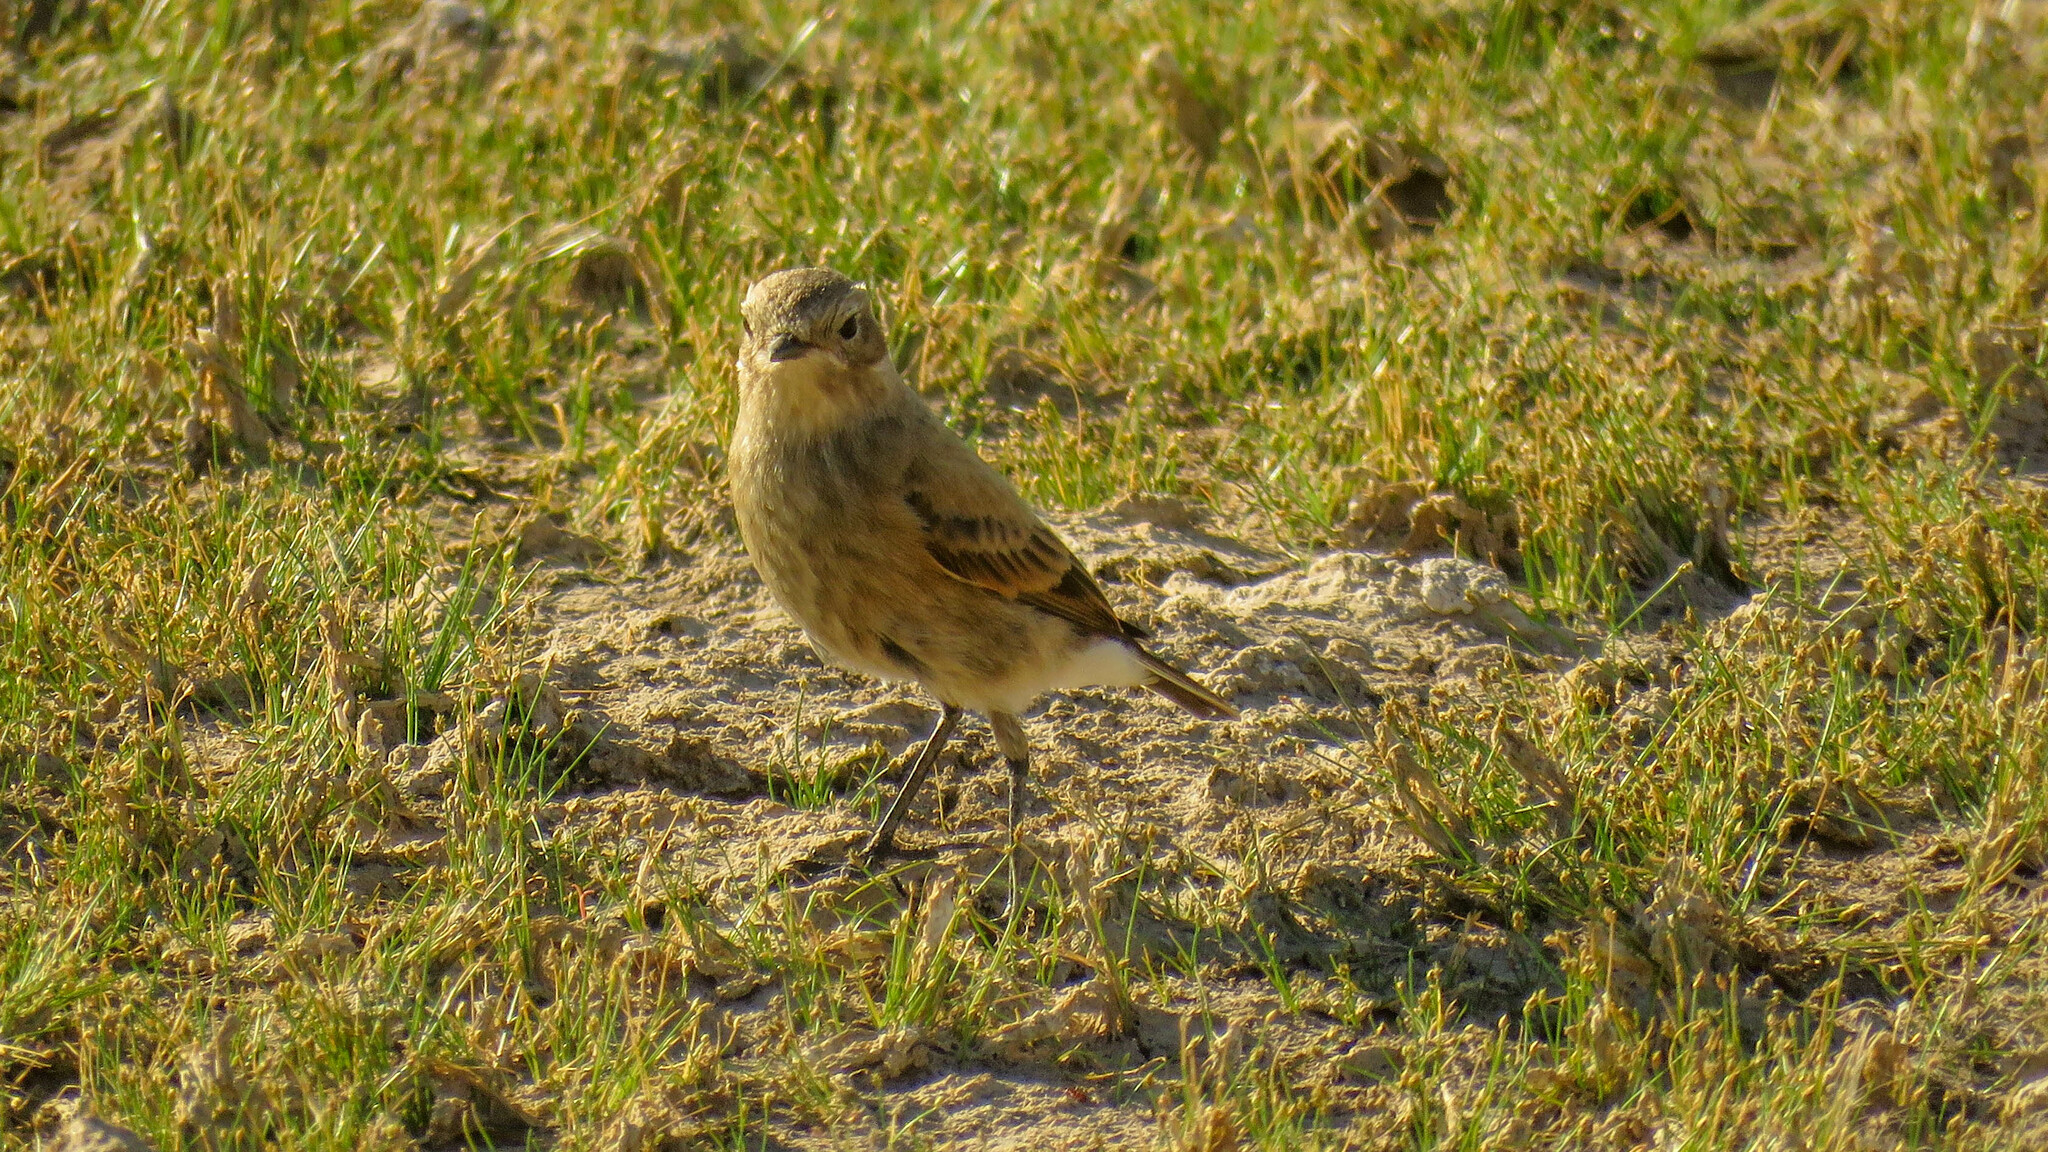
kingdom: Animalia
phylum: Chordata
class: Aves
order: Passeriformes
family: Tyrannidae
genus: Lessonia
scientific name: Lessonia rufa
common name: Austral negrito
